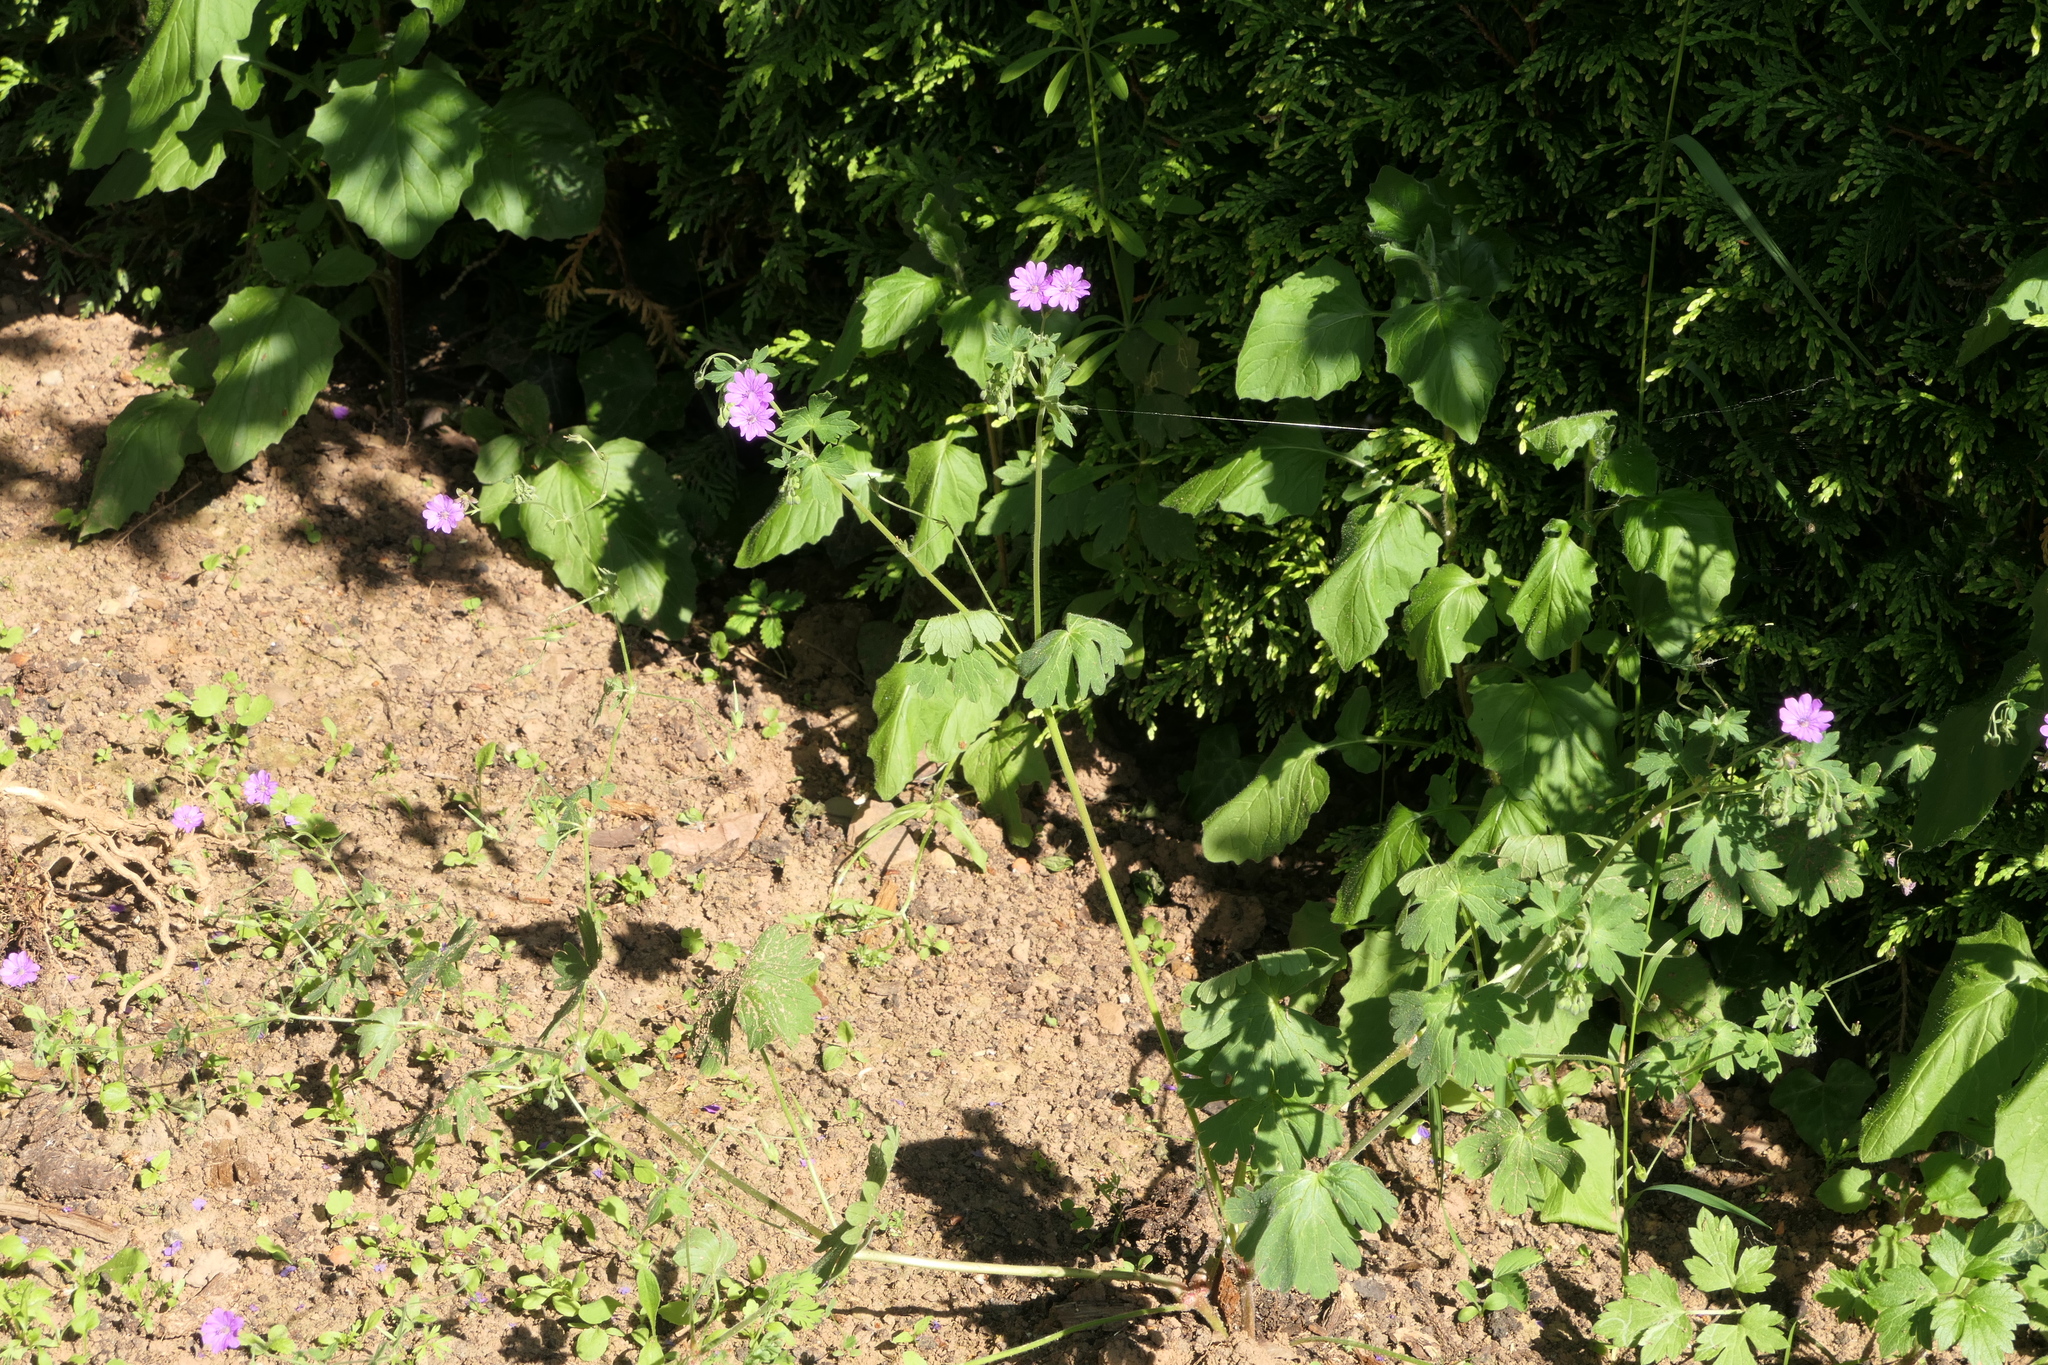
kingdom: Plantae
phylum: Tracheophyta
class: Magnoliopsida
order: Geraniales
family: Geraniaceae
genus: Geranium
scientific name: Geranium pyrenaicum
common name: Hedgerow crane's-bill
